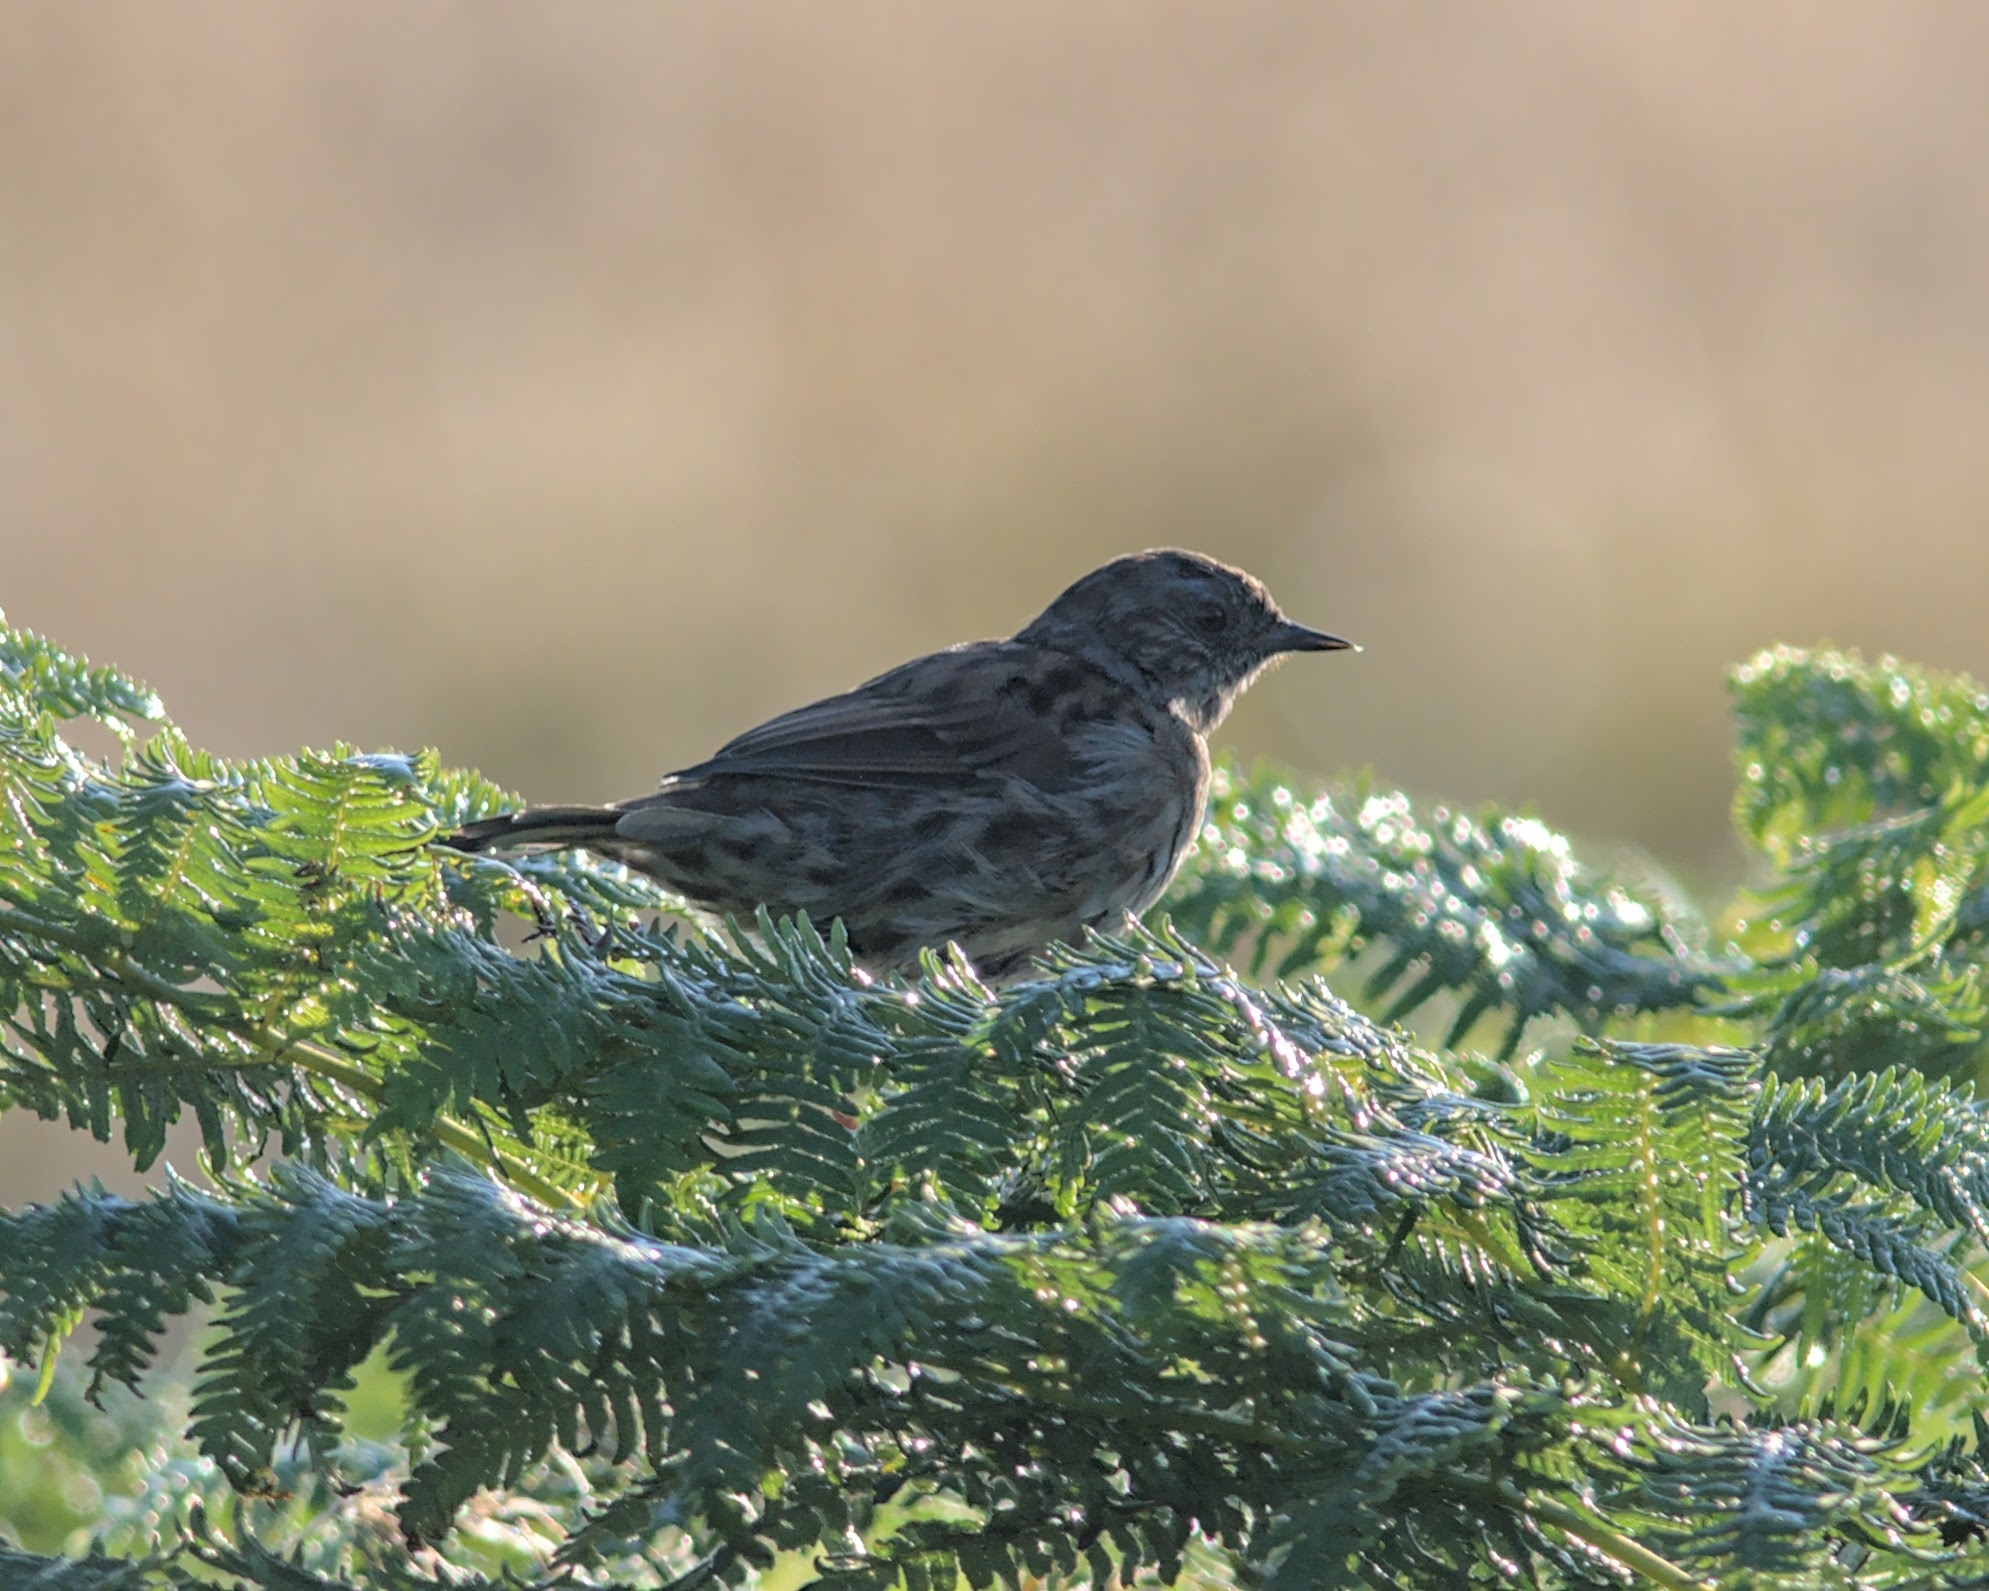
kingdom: Animalia
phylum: Chordata
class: Aves
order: Passeriformes
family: Prunellidae
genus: Prunella
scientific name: Prunella modularis
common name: Dunnock
